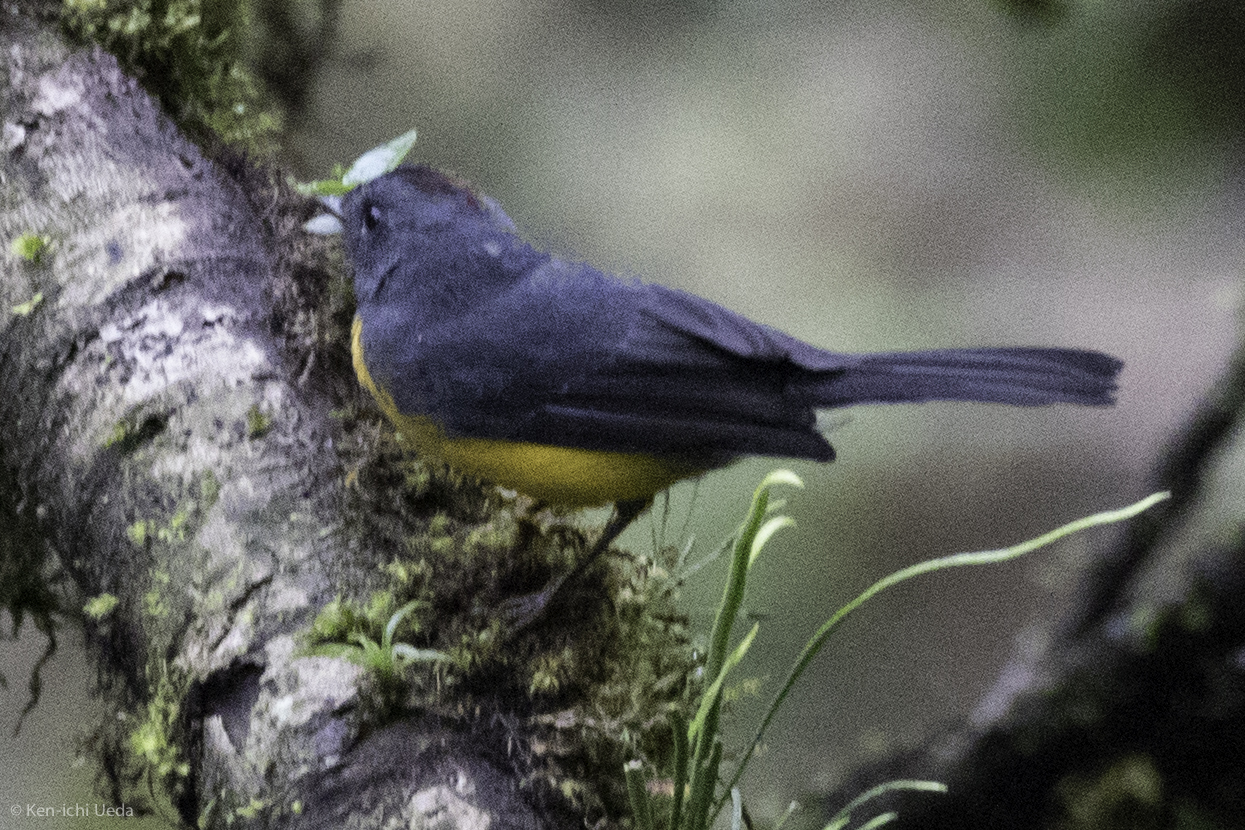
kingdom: Animalia
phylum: Chordata
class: Aves
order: Passeriformes
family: Parulidae
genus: Myioborus
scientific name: Myioborus miniatus
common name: Slate-throated redstart
